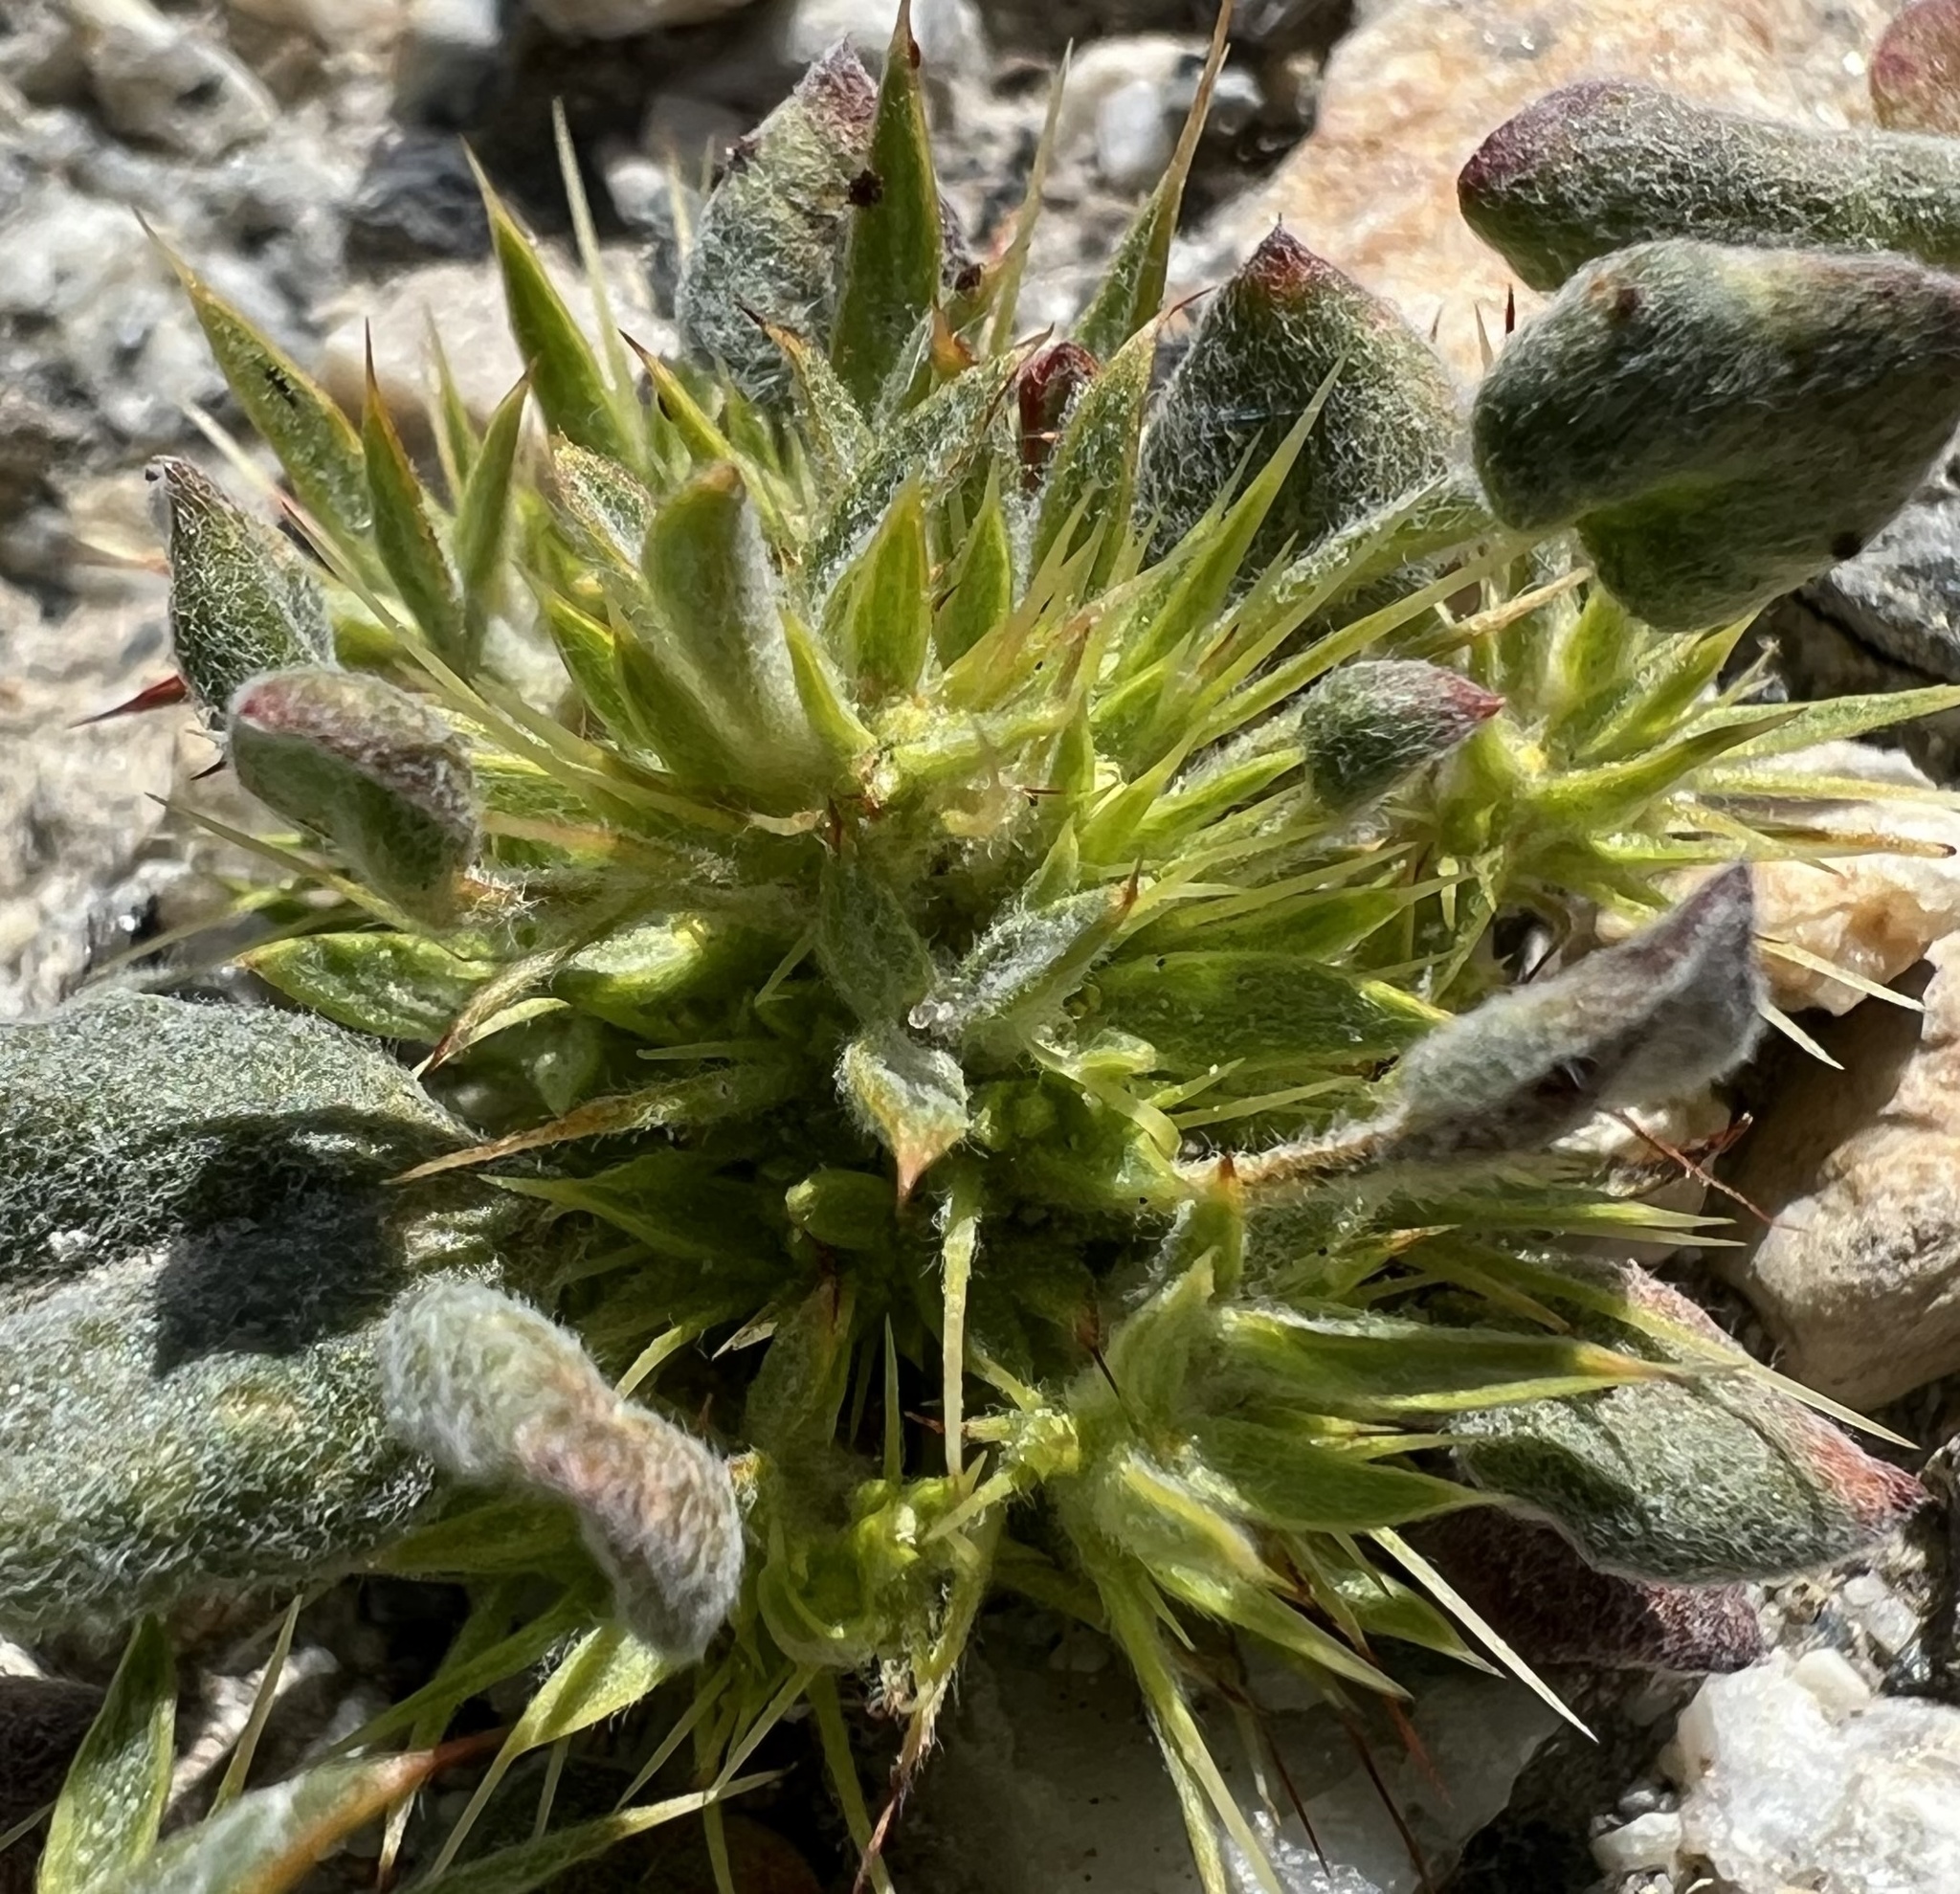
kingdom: Plantae
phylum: Tracheophyta
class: Magnoliopsida
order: Caryophyllales
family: Polygonaceae
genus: Chorizanthe
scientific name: Chorizanthe rigida
